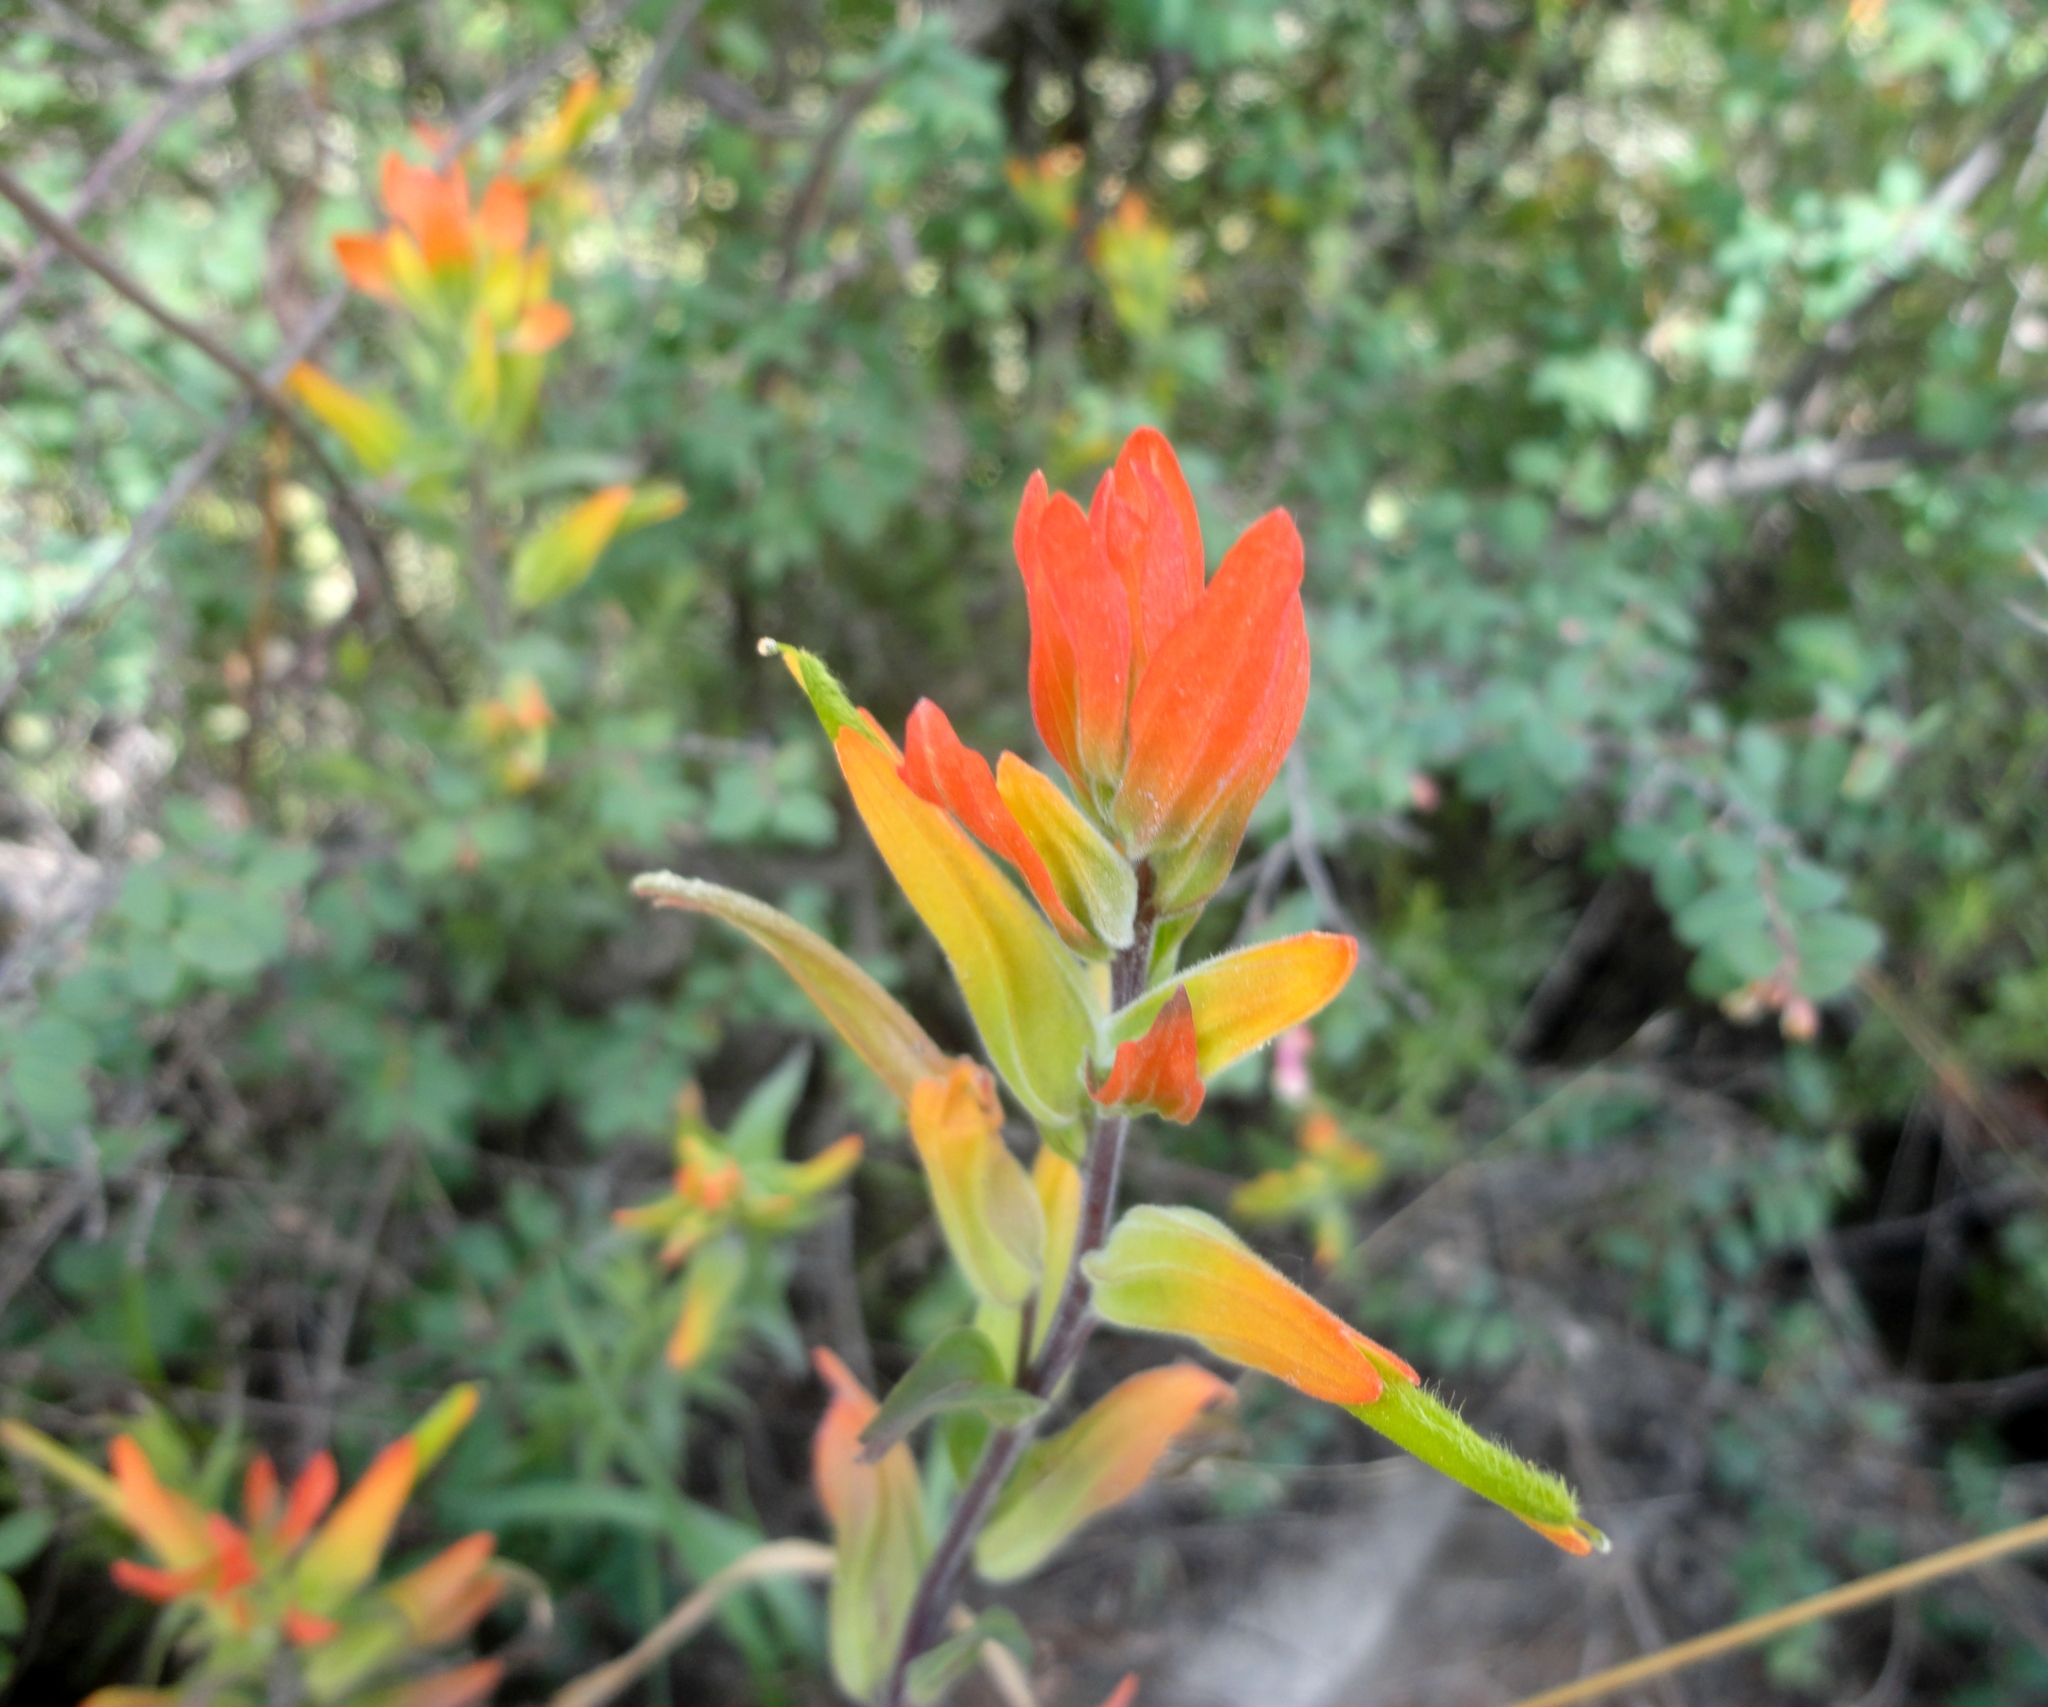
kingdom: Plantae
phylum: Tracheophyta
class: Magnoliopsida
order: Lamiales
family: Orobanchaceae
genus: Castilleja
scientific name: Castilleja integrifolia
